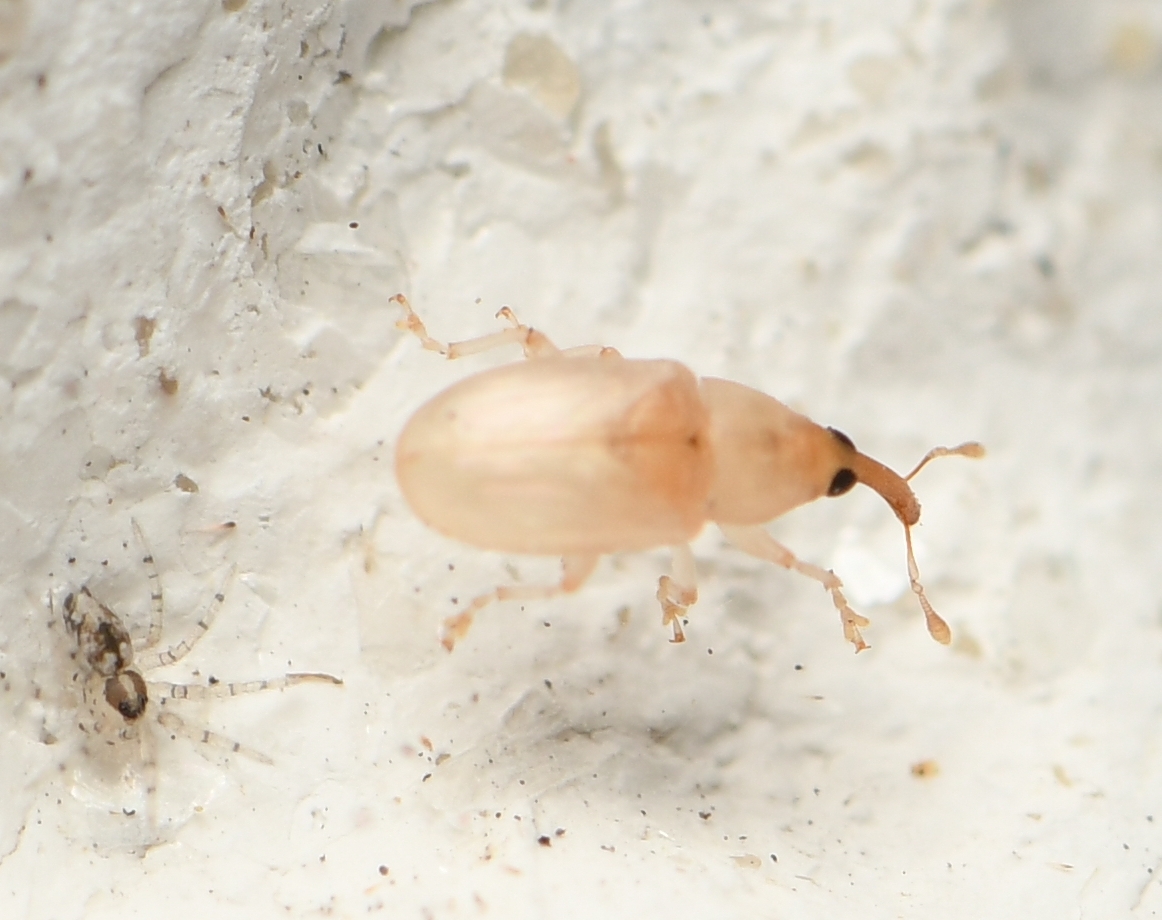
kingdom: Animalia
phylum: Arthropoda
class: Insecta
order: Coleoptera
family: Curculionidae
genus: Notolomus
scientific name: Notolomus basalis
